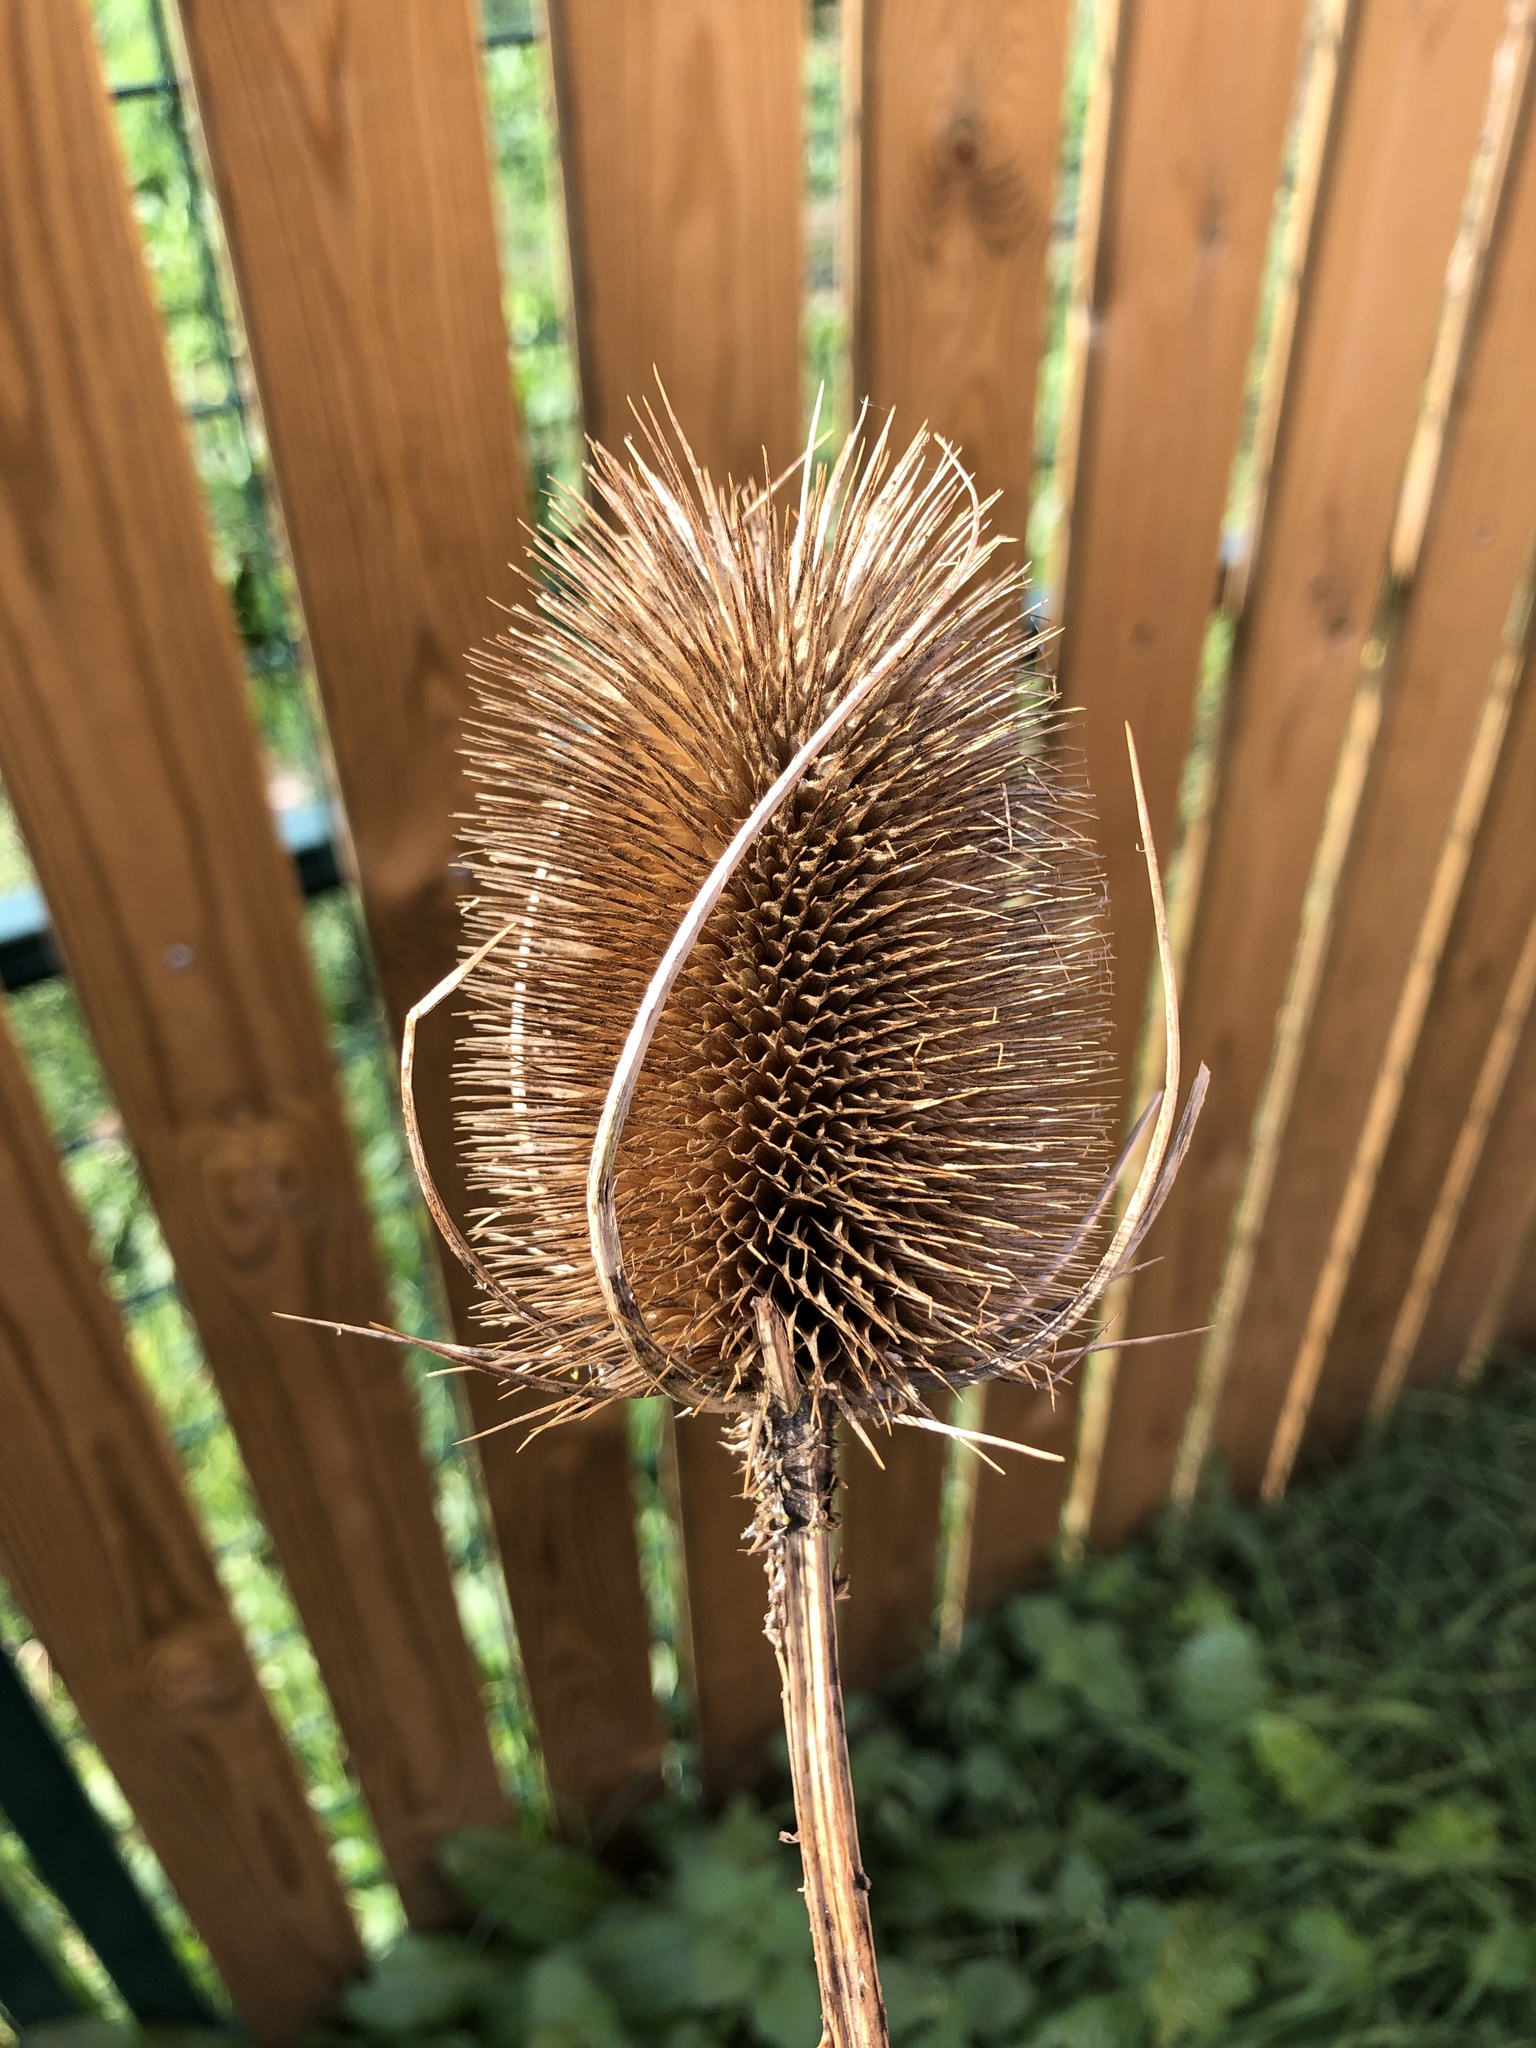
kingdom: Plantae
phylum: Tracheophyta
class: Magnoliopsida
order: Dipsacales
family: Caprifoliaceae
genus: Dipsacus
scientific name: Dipsacus fullonum
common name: Teasel
